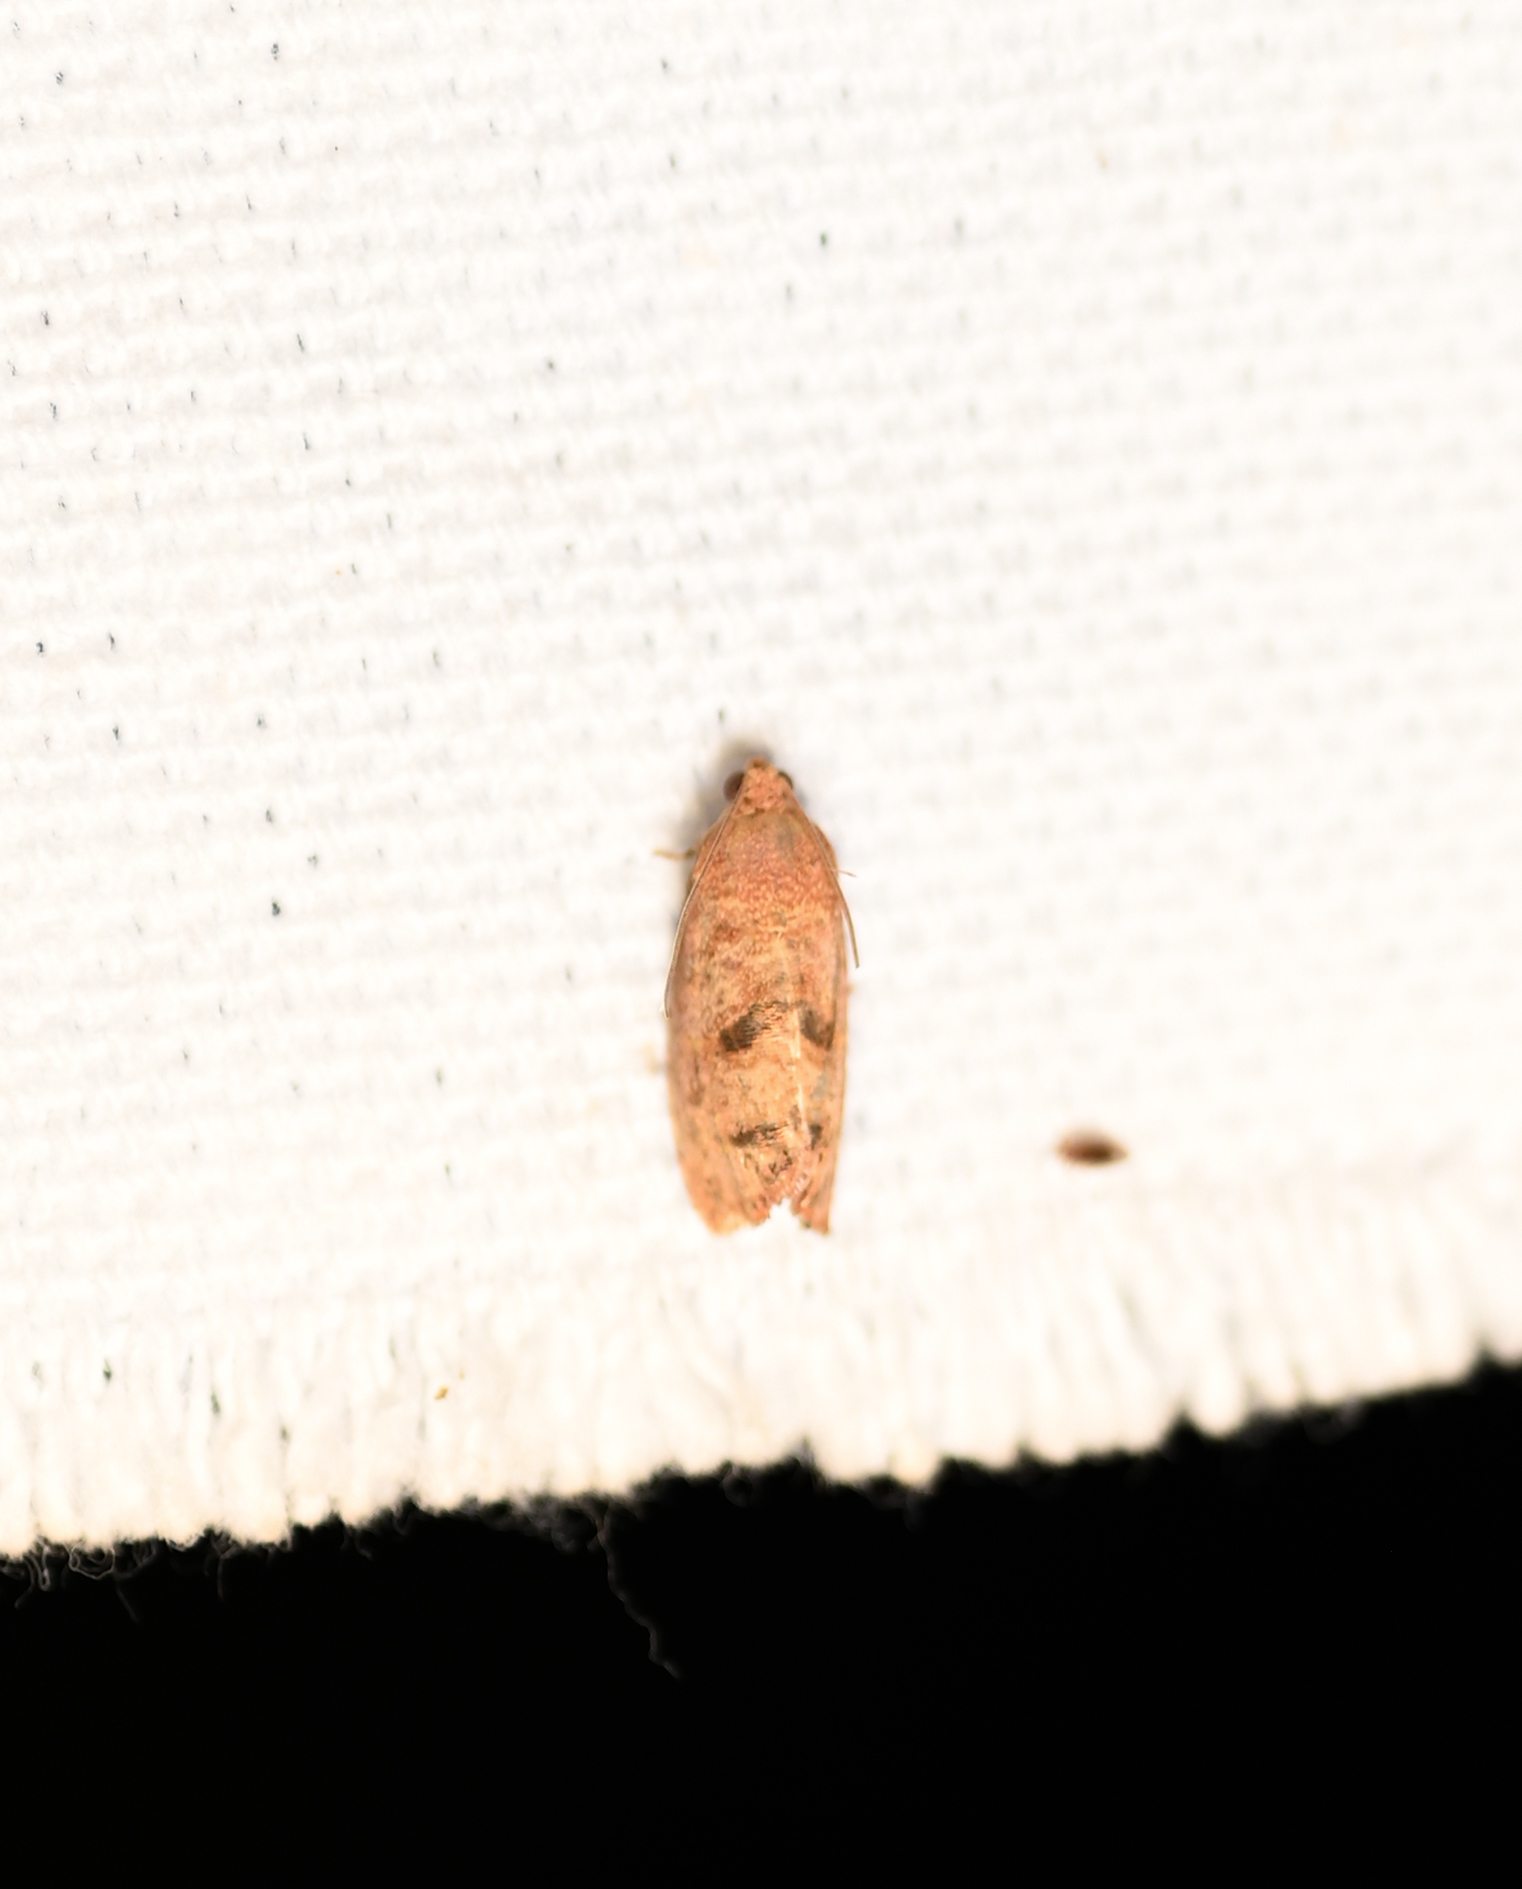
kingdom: Animalia
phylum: Arthropoda
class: Insecta
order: Lepidoptera
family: Tortricidae
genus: Cydia
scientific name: Cydia latiferreana
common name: Filbertworm moth
